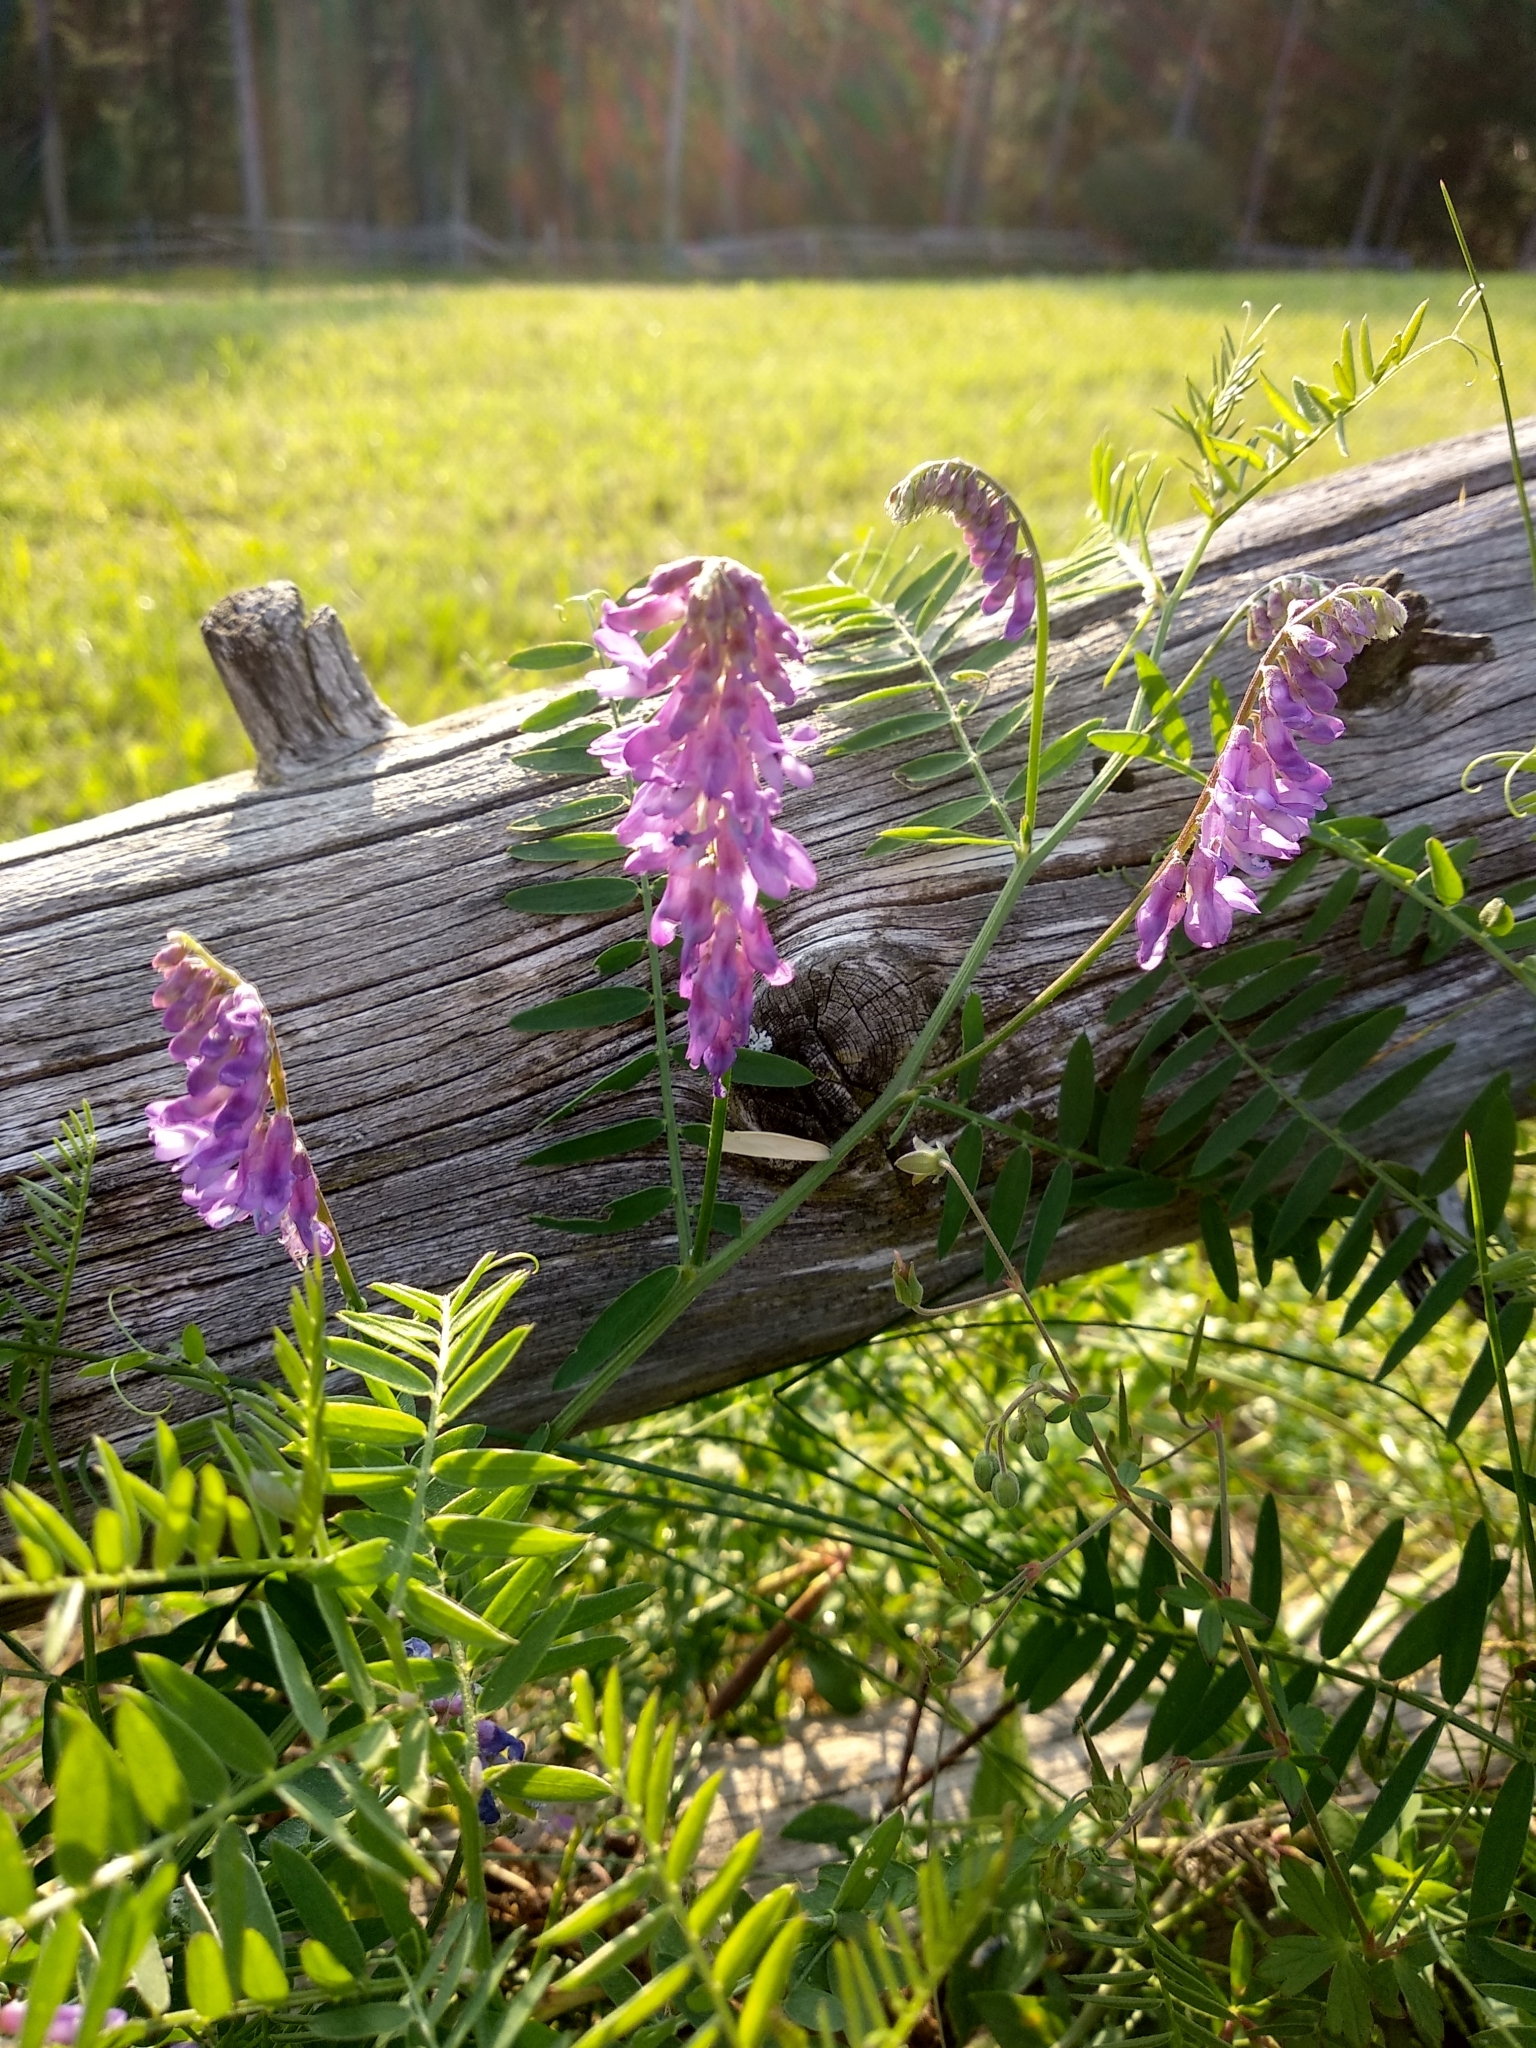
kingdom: Plantae
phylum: Tracheophyta
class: Magnoliopsida
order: Fabales
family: Fabaceae
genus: Vicia
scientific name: Vicia cracca
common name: Bird vetch
